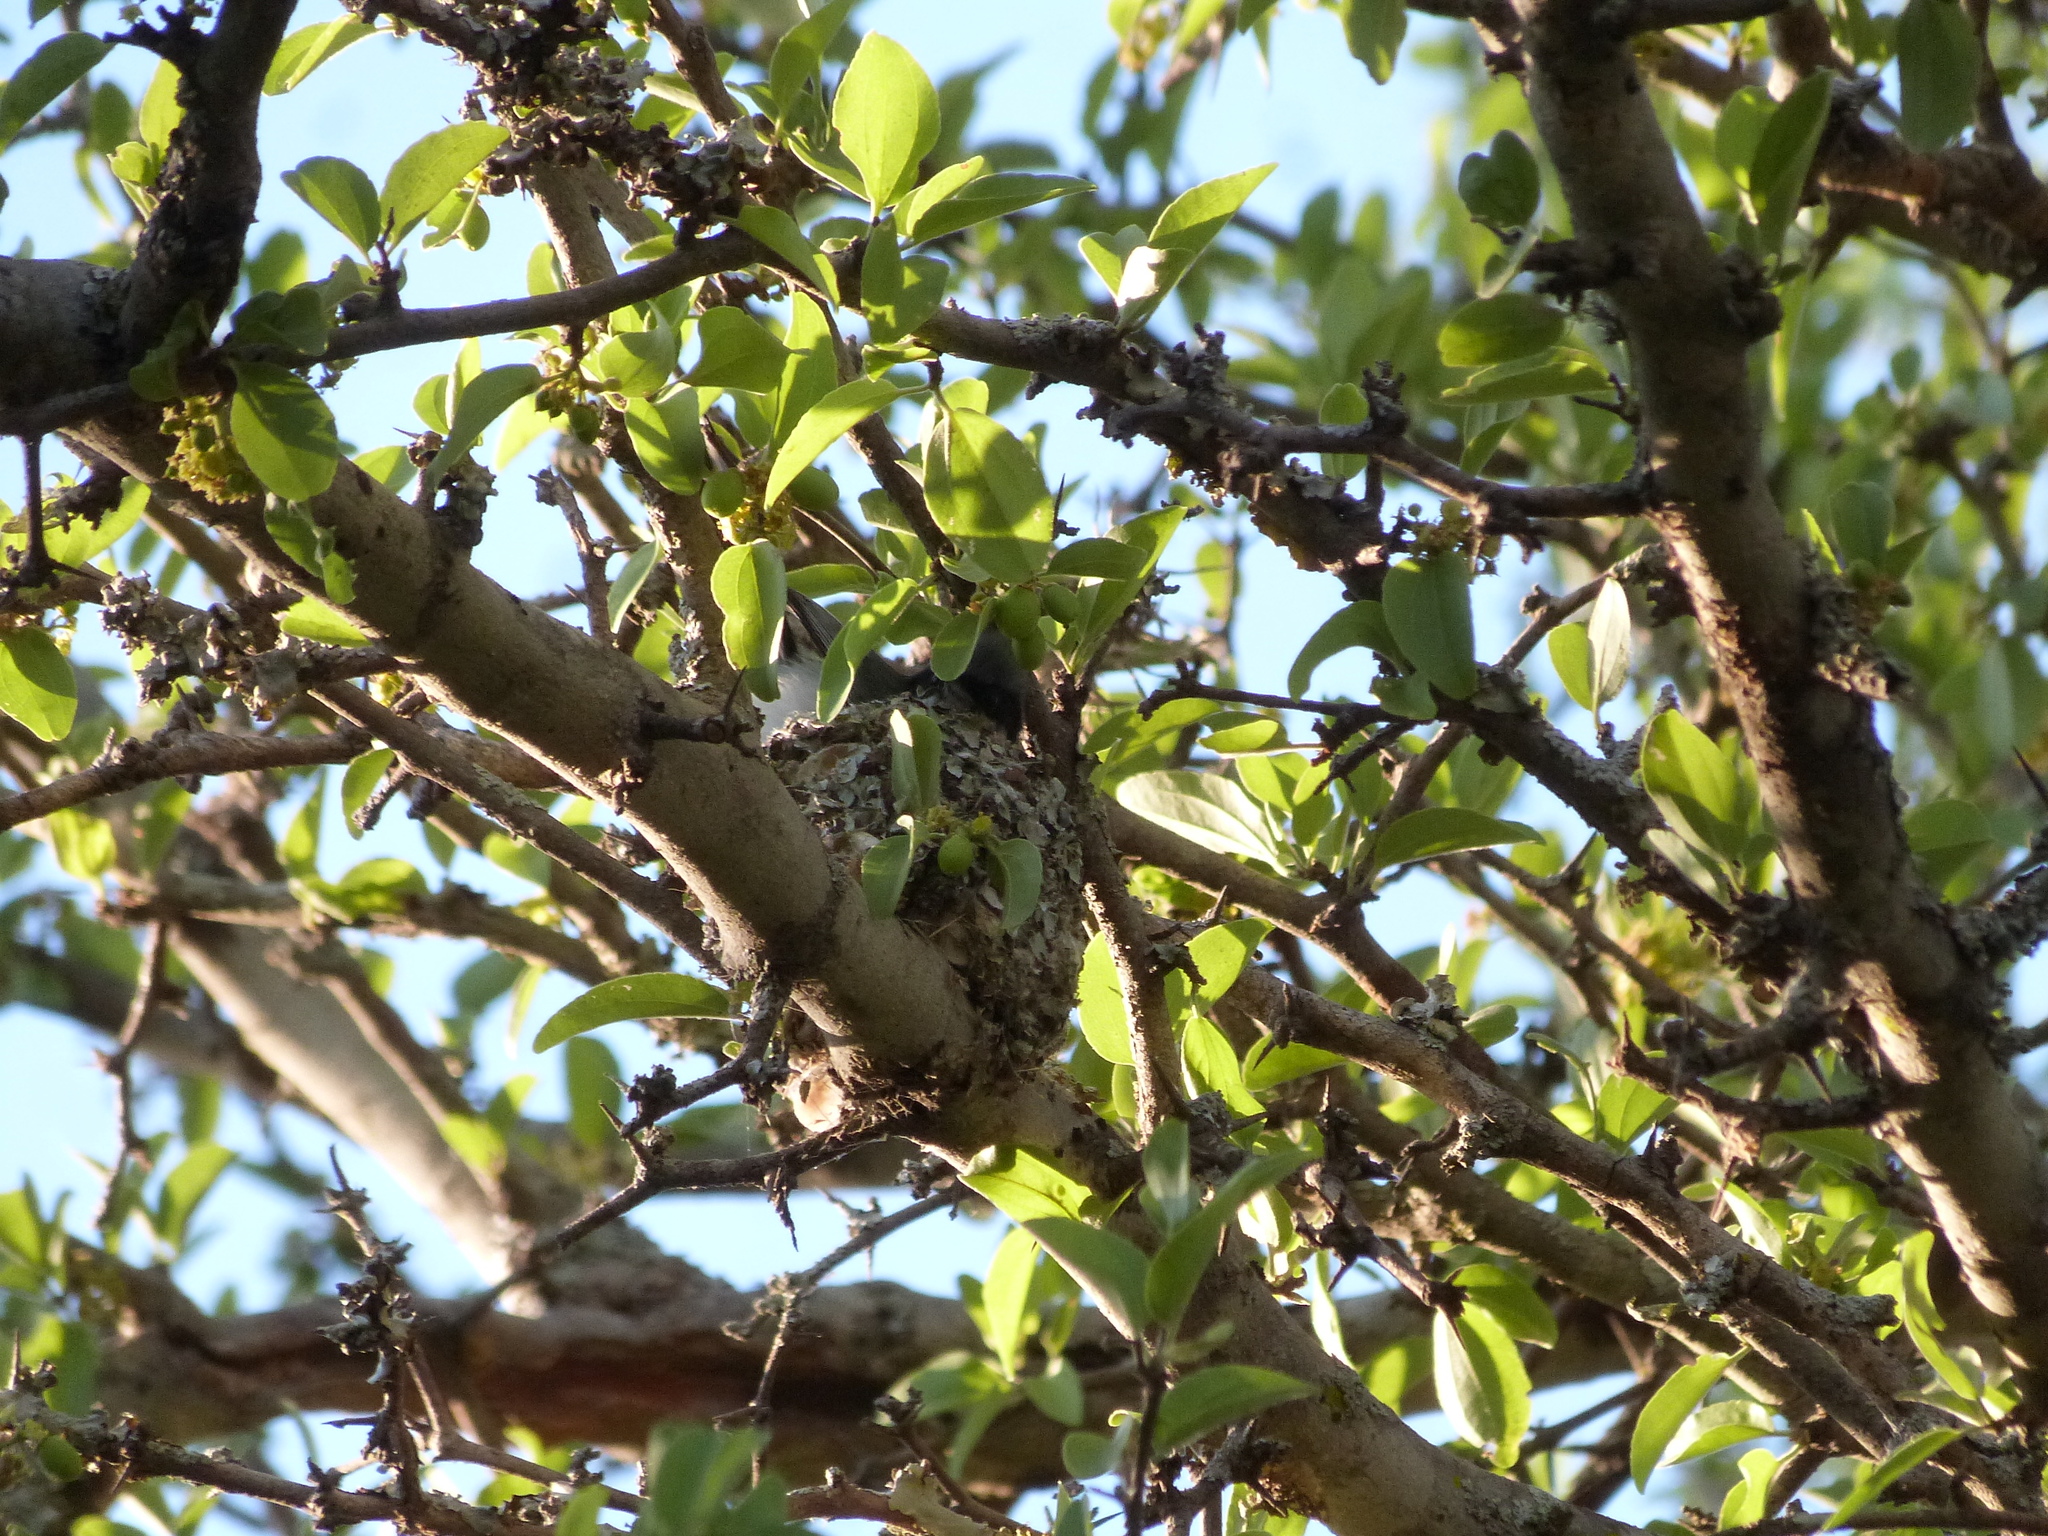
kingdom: Animalia
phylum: Chordata
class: Aves
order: Passeriformes
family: Polioptilidae
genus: Polioptila
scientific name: Polioptila dumicola
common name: Masked gnatcatcher
